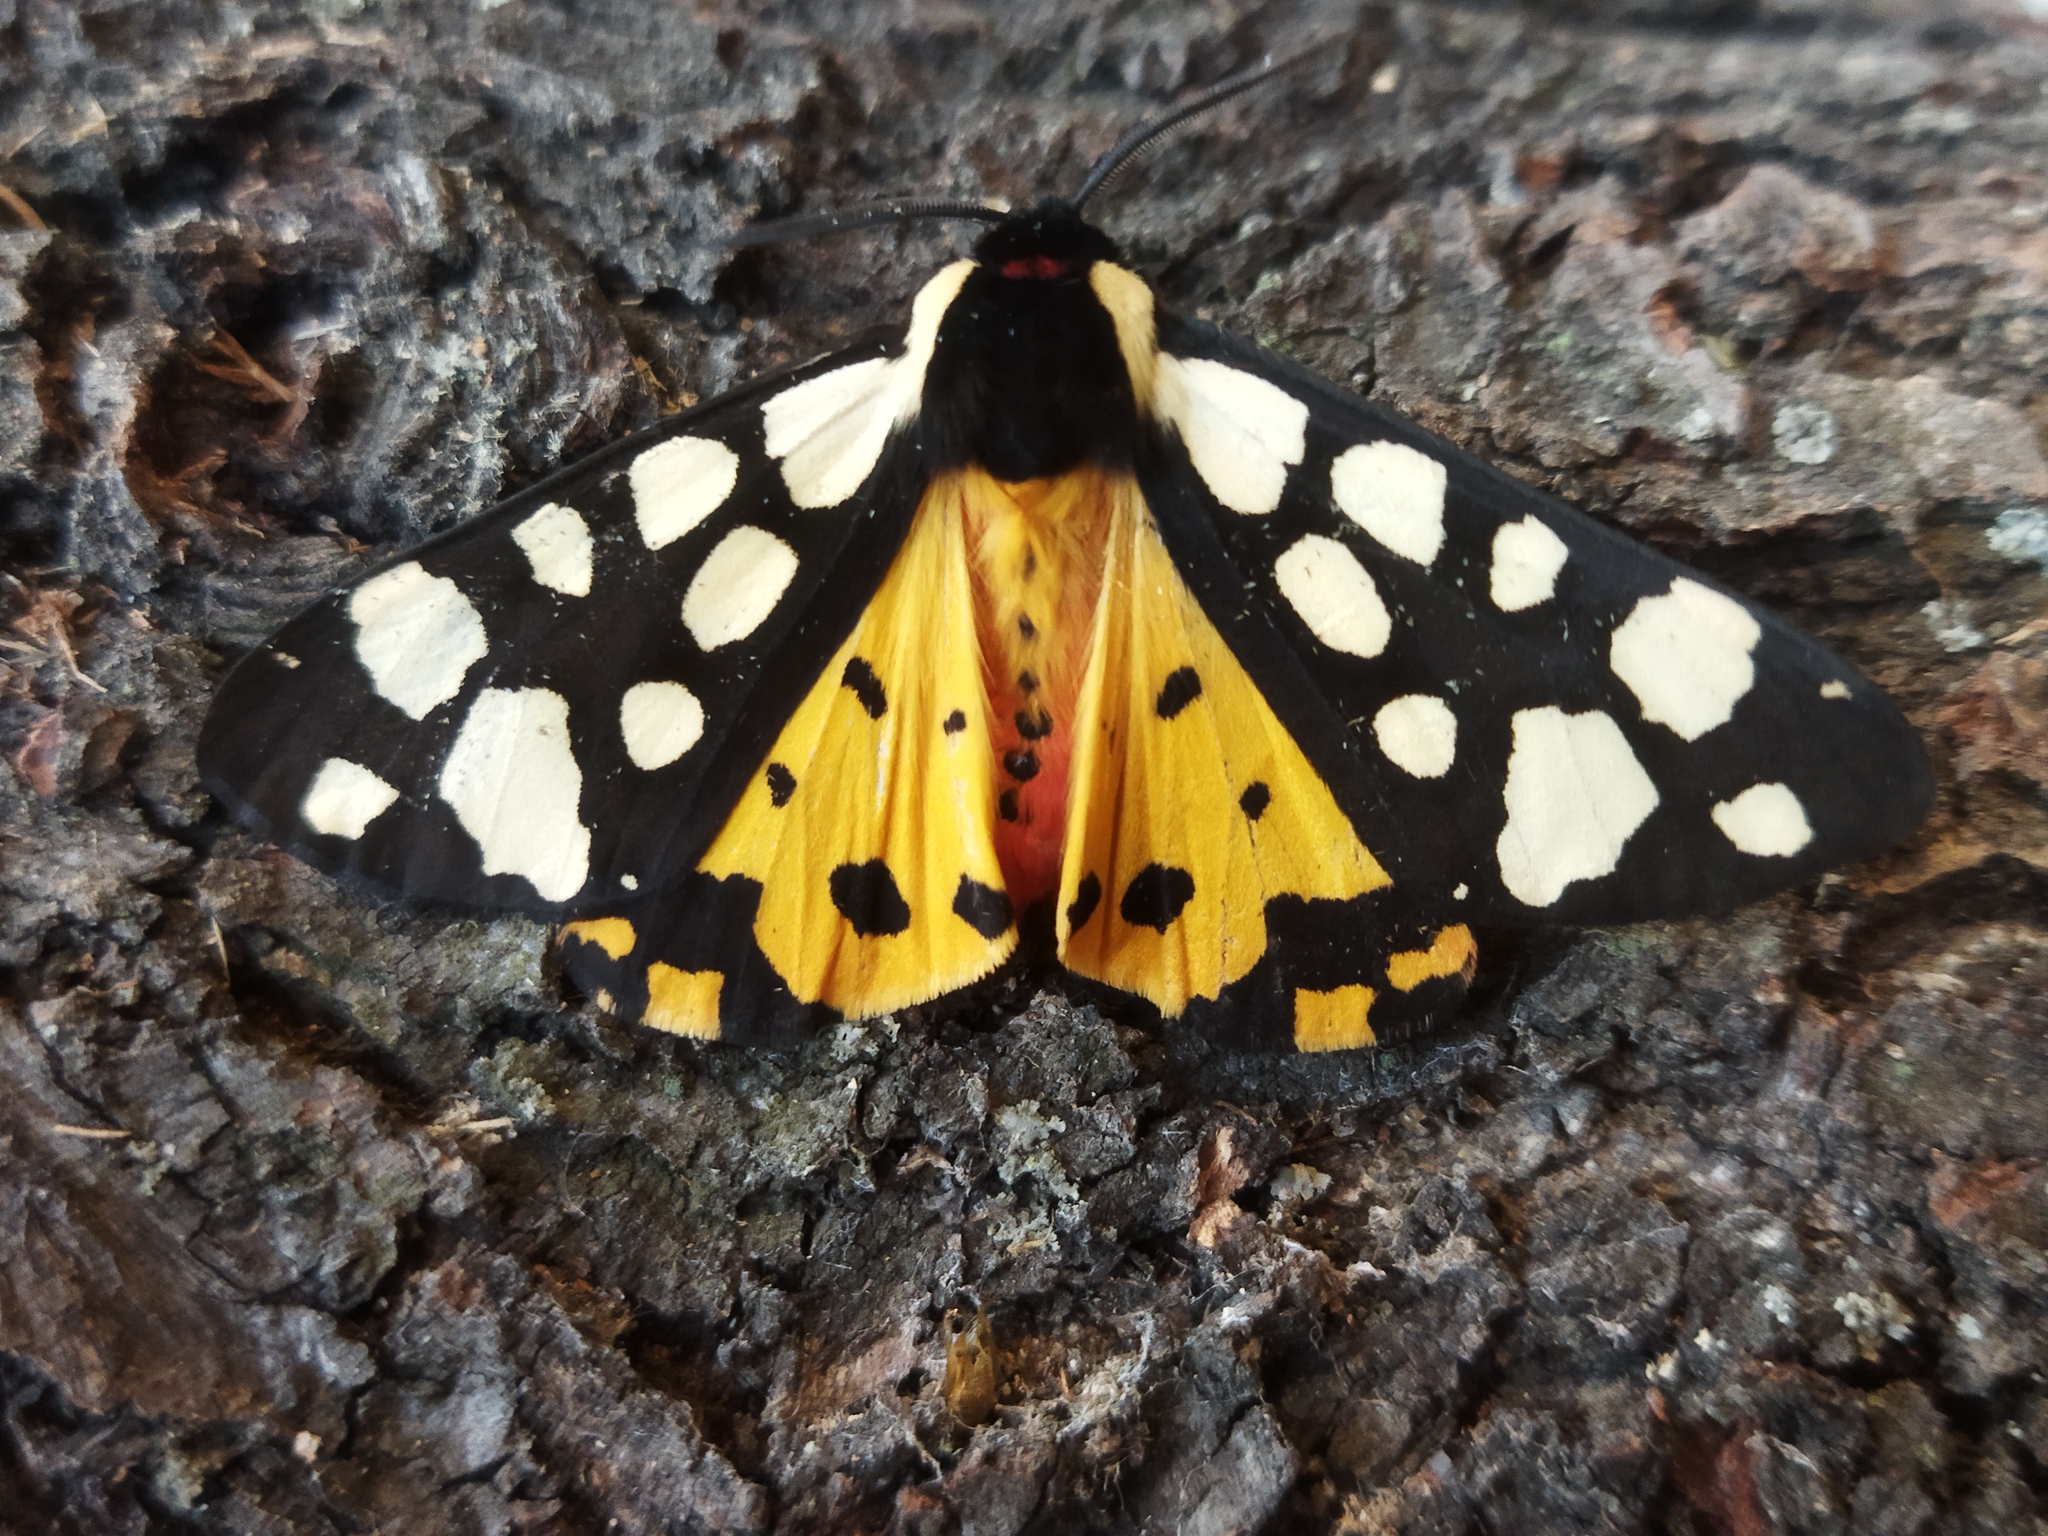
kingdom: Animalia
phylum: Arthropoda
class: Insecta
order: Lepidoptera
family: Erebidae
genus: Epicallia
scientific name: Epicallia villica
